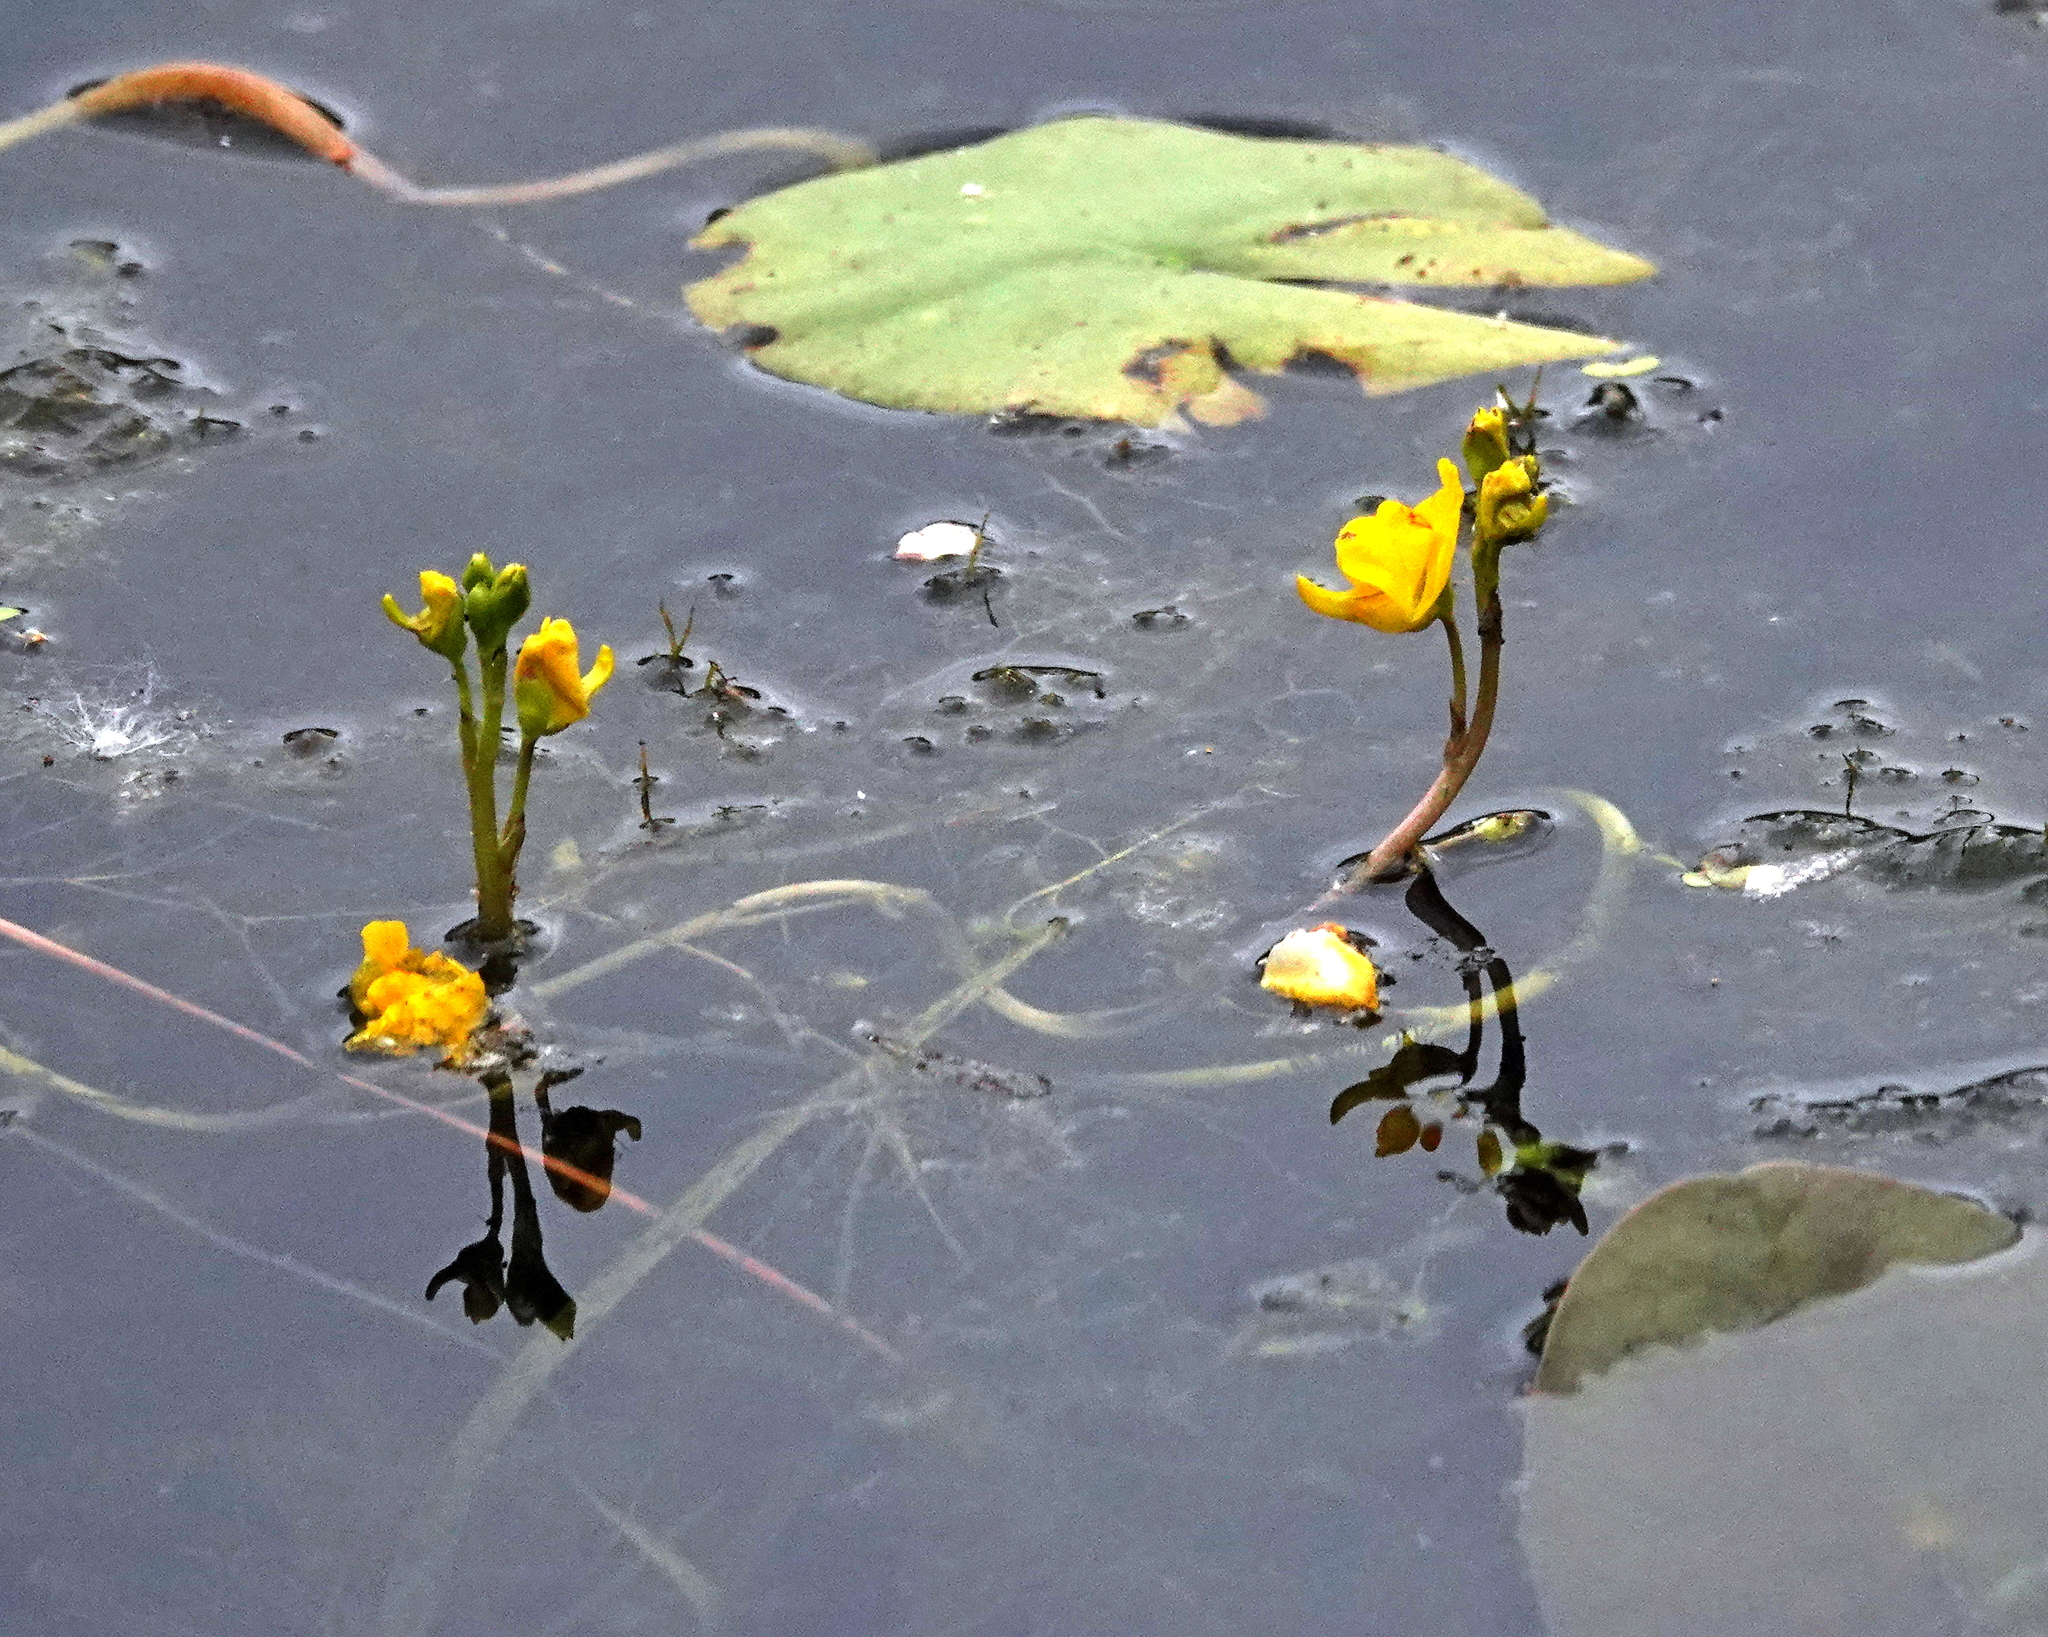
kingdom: Plantae
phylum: Tracheophyta
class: Magnoliopsida
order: Lamiales
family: Lentibulariaceae
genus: Utricularia
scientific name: Utricularia macrorhiza
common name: Common bladderwort
